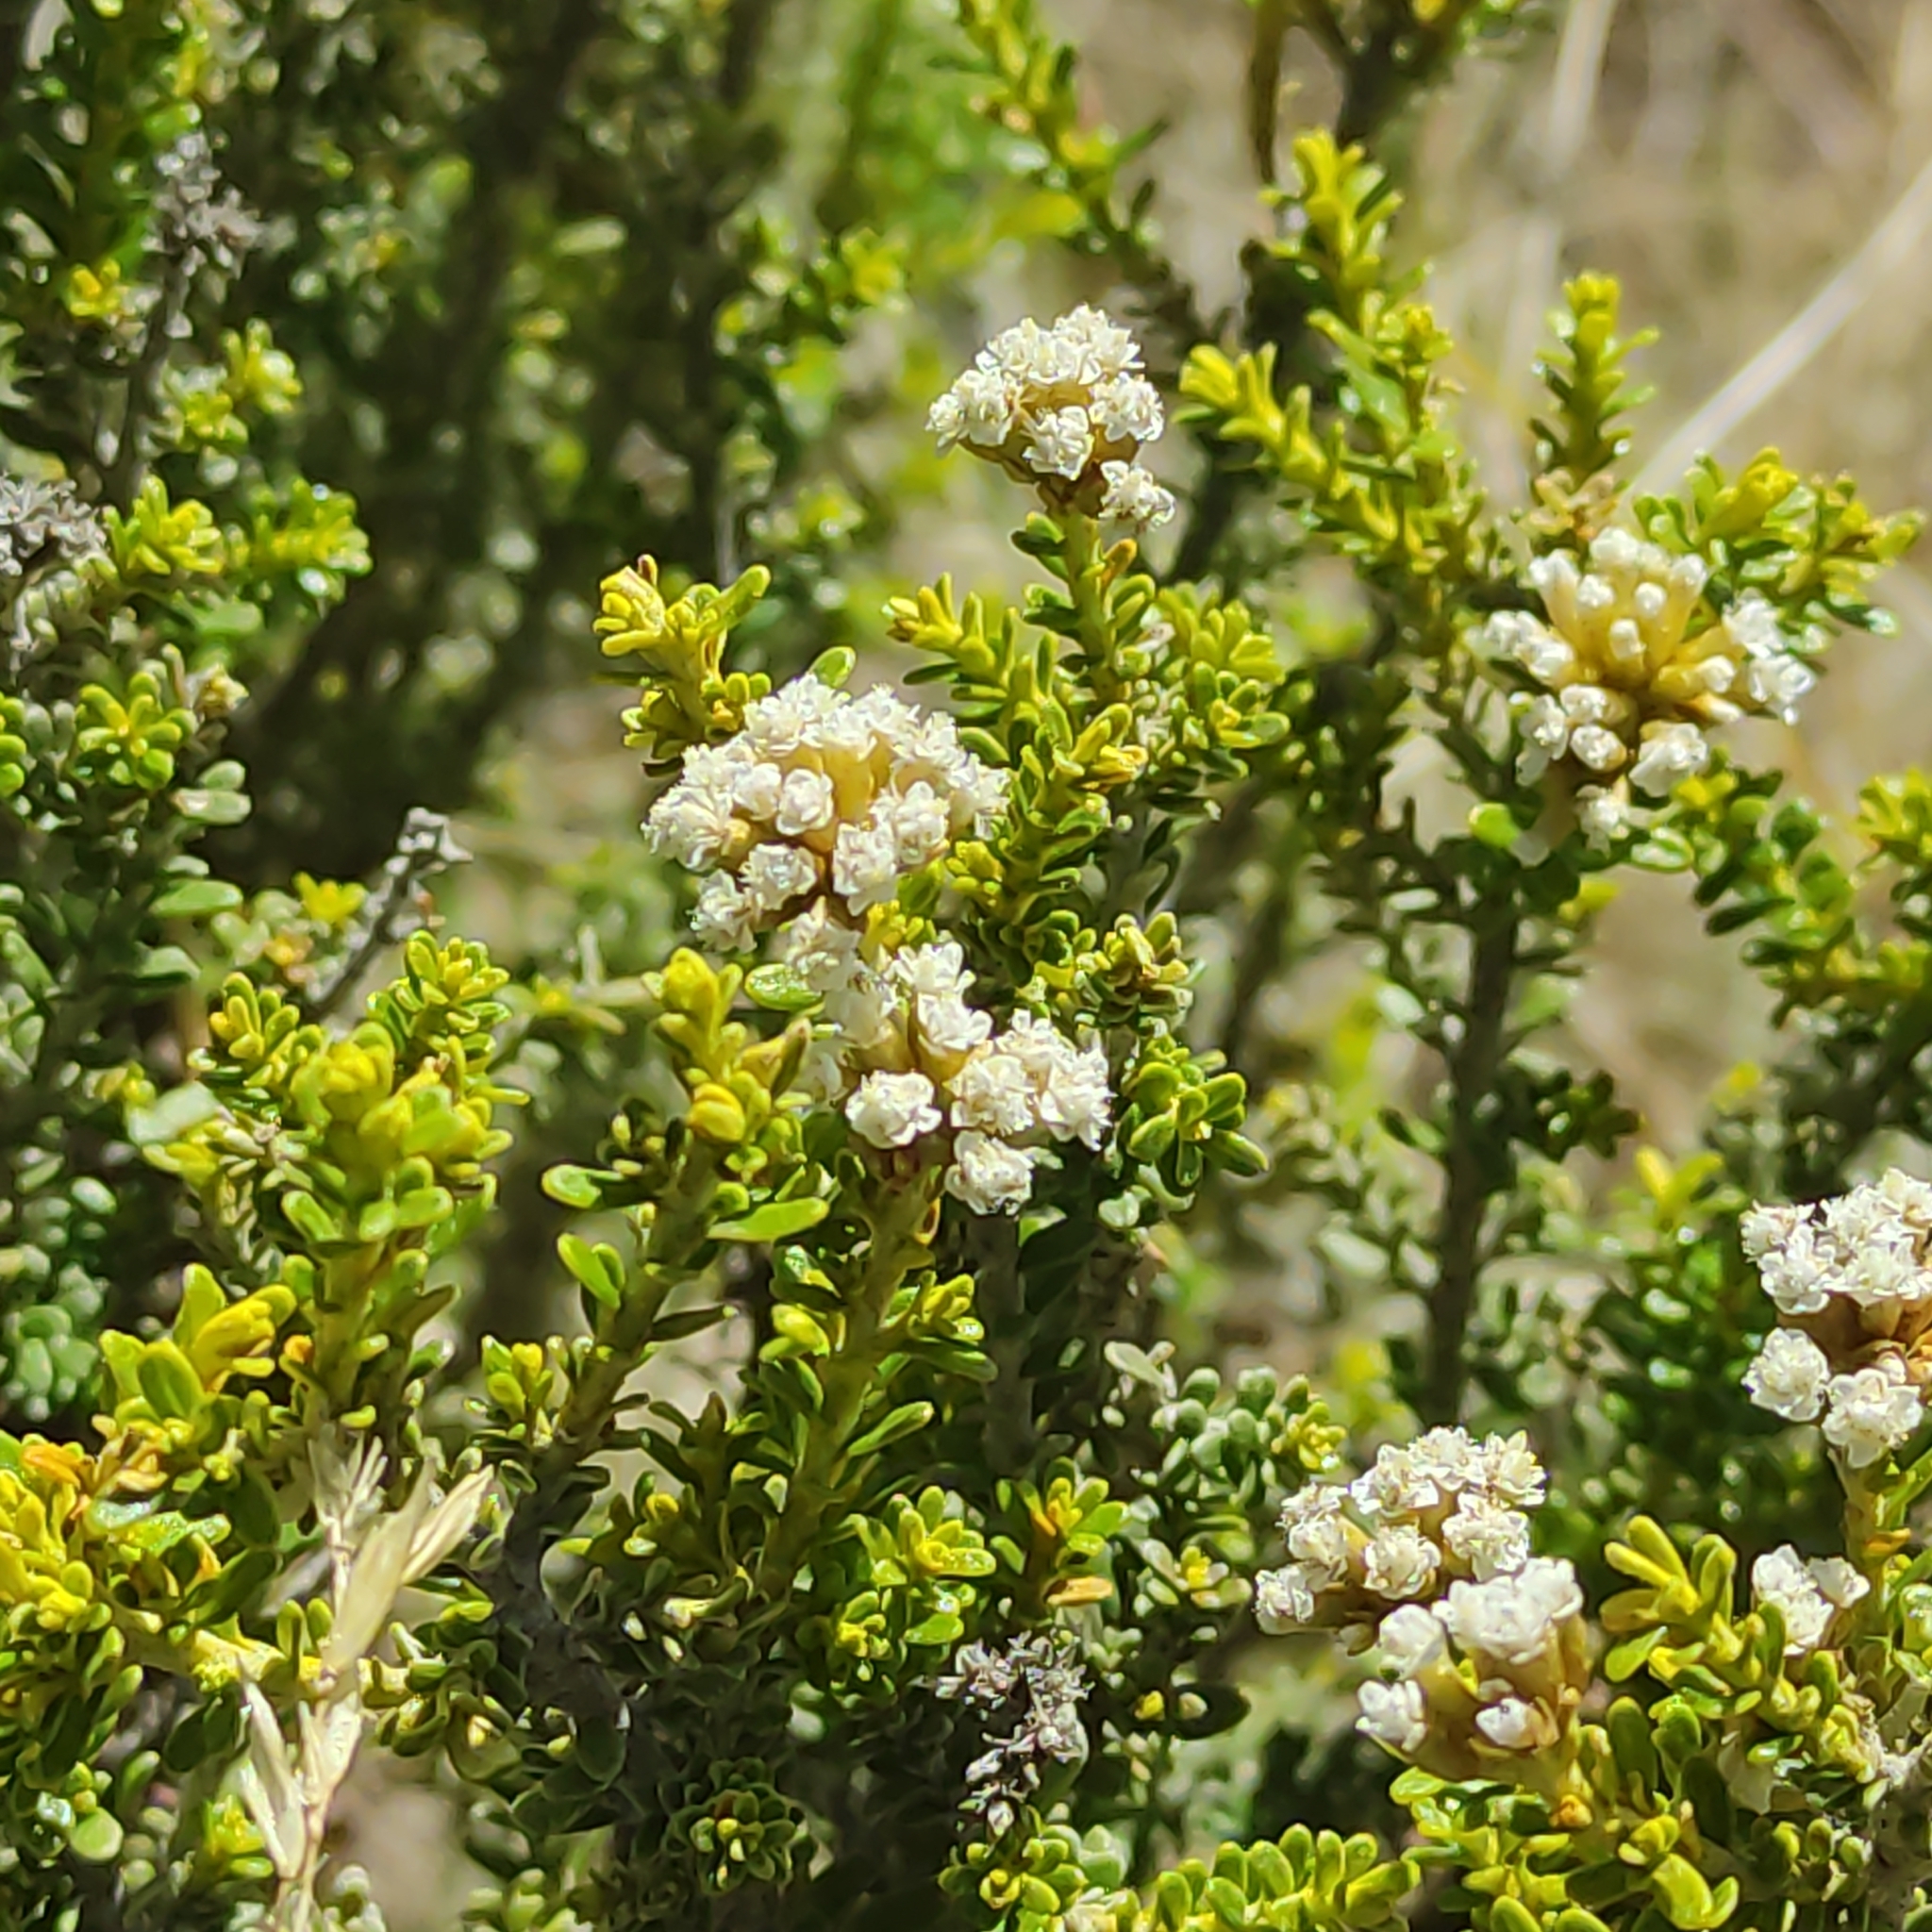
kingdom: Plantae
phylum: Tracheophyta
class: Magnoliopsida
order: Asterales
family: Asteraceae
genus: Ozothamnus
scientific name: Ozothamnus leptophyllus
